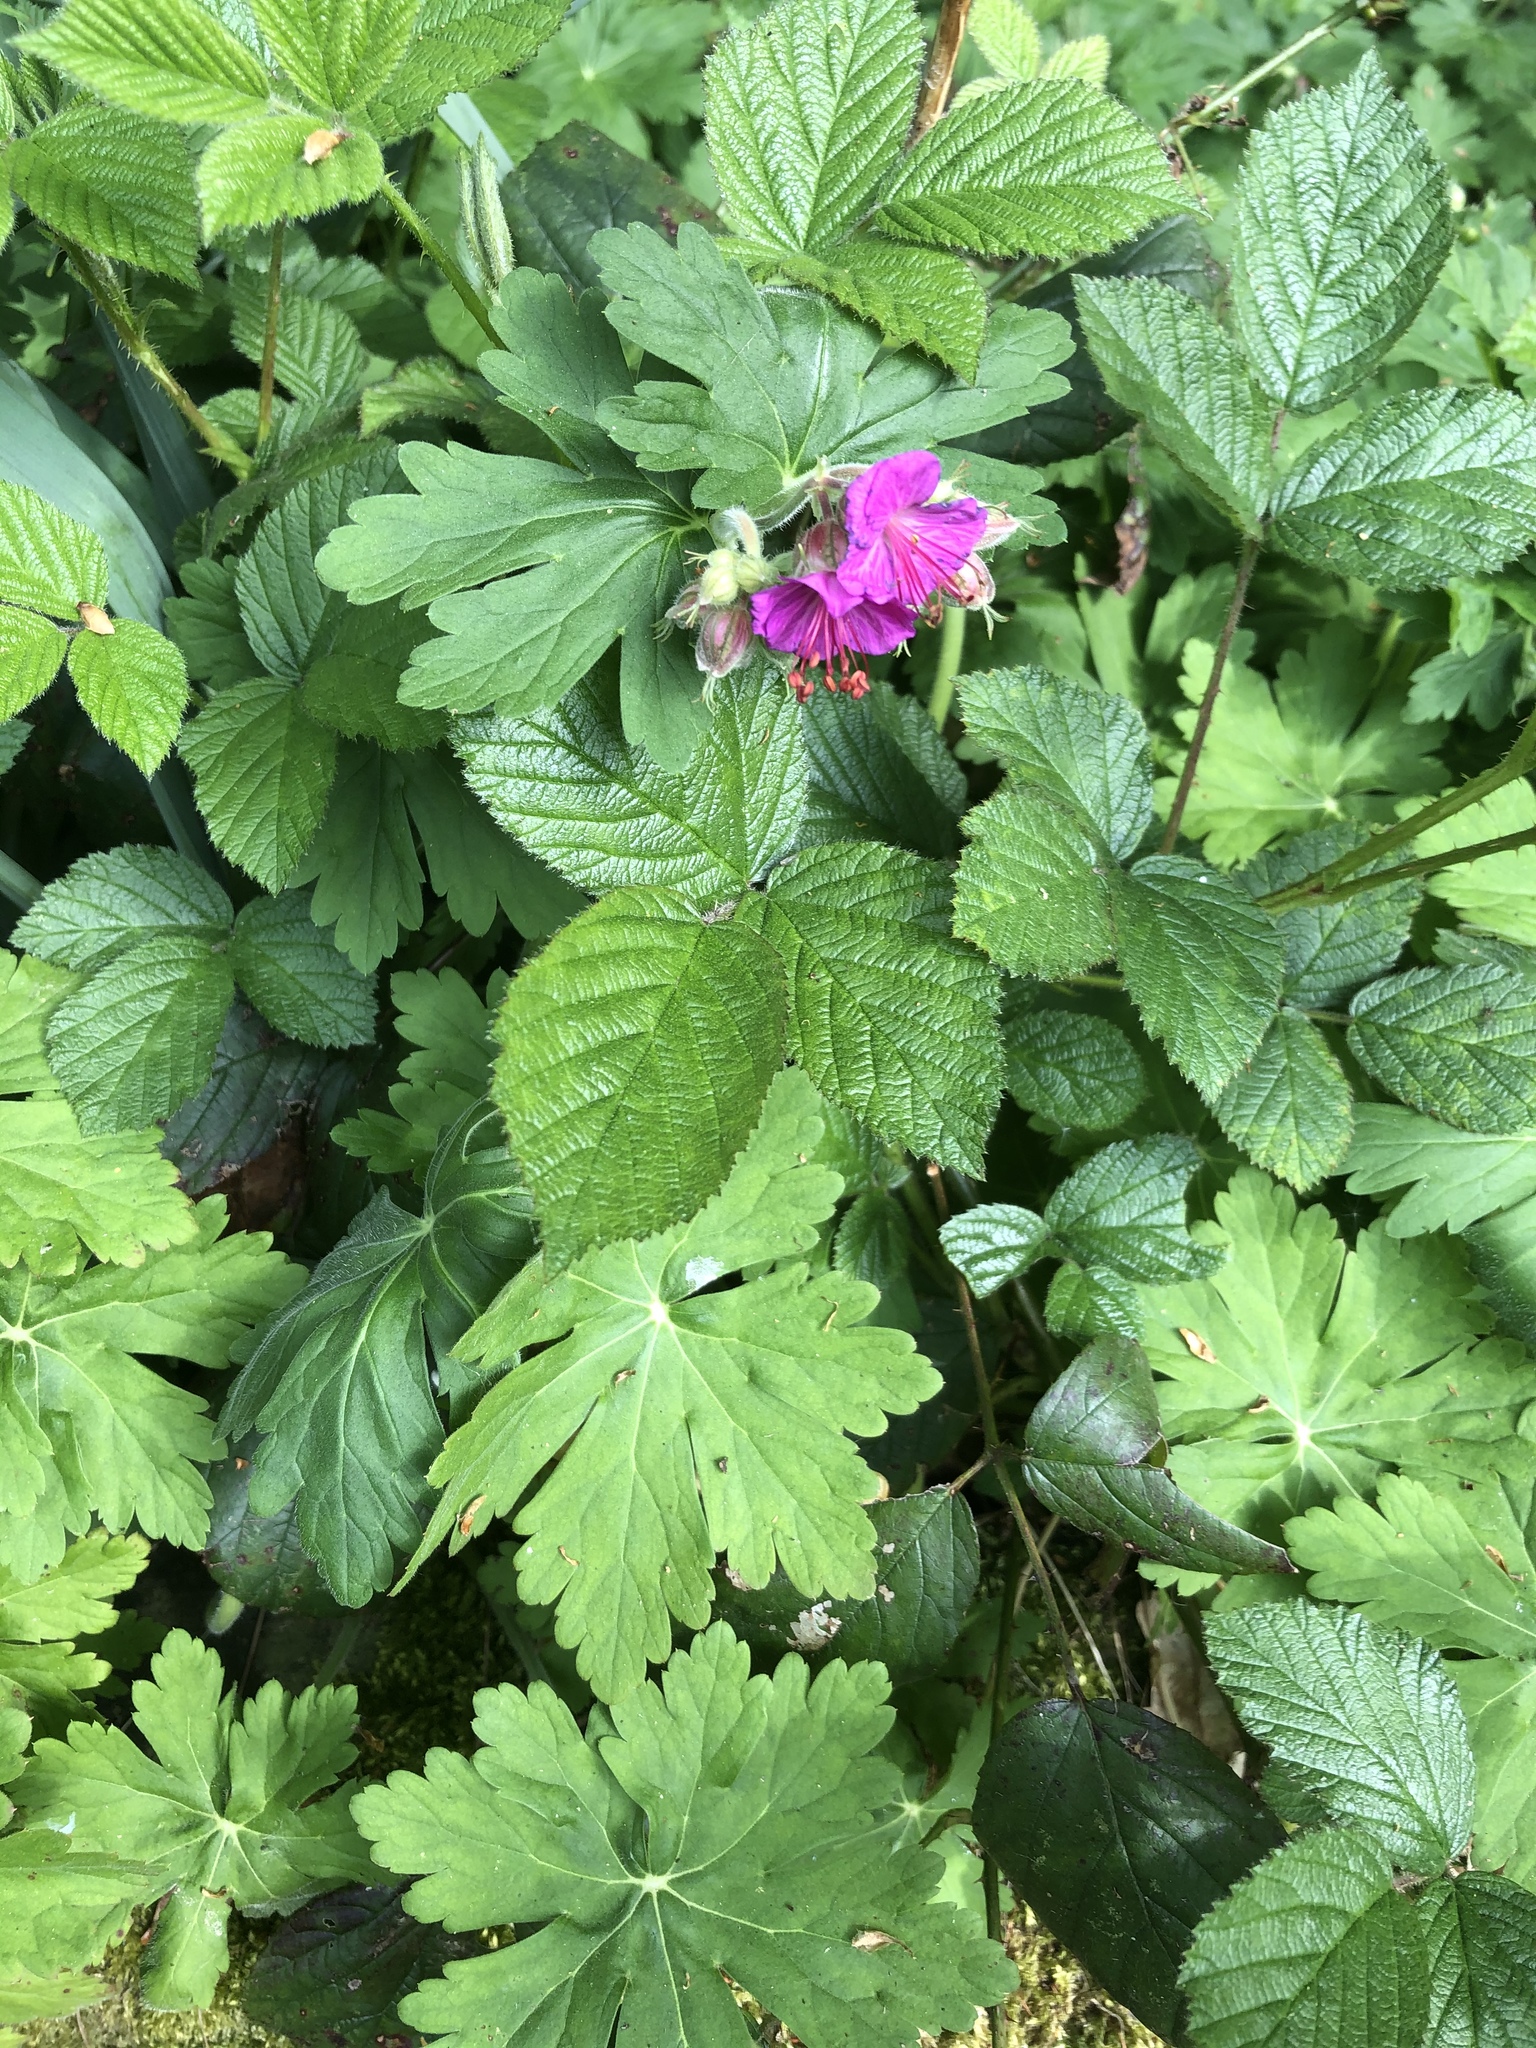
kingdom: Plantae
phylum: Tracheophyta
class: Magnoliopsida
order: Geraniales
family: Geraniaceae
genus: Geranium
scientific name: Geranium macrorrhizum
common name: Rock crane's-bill
